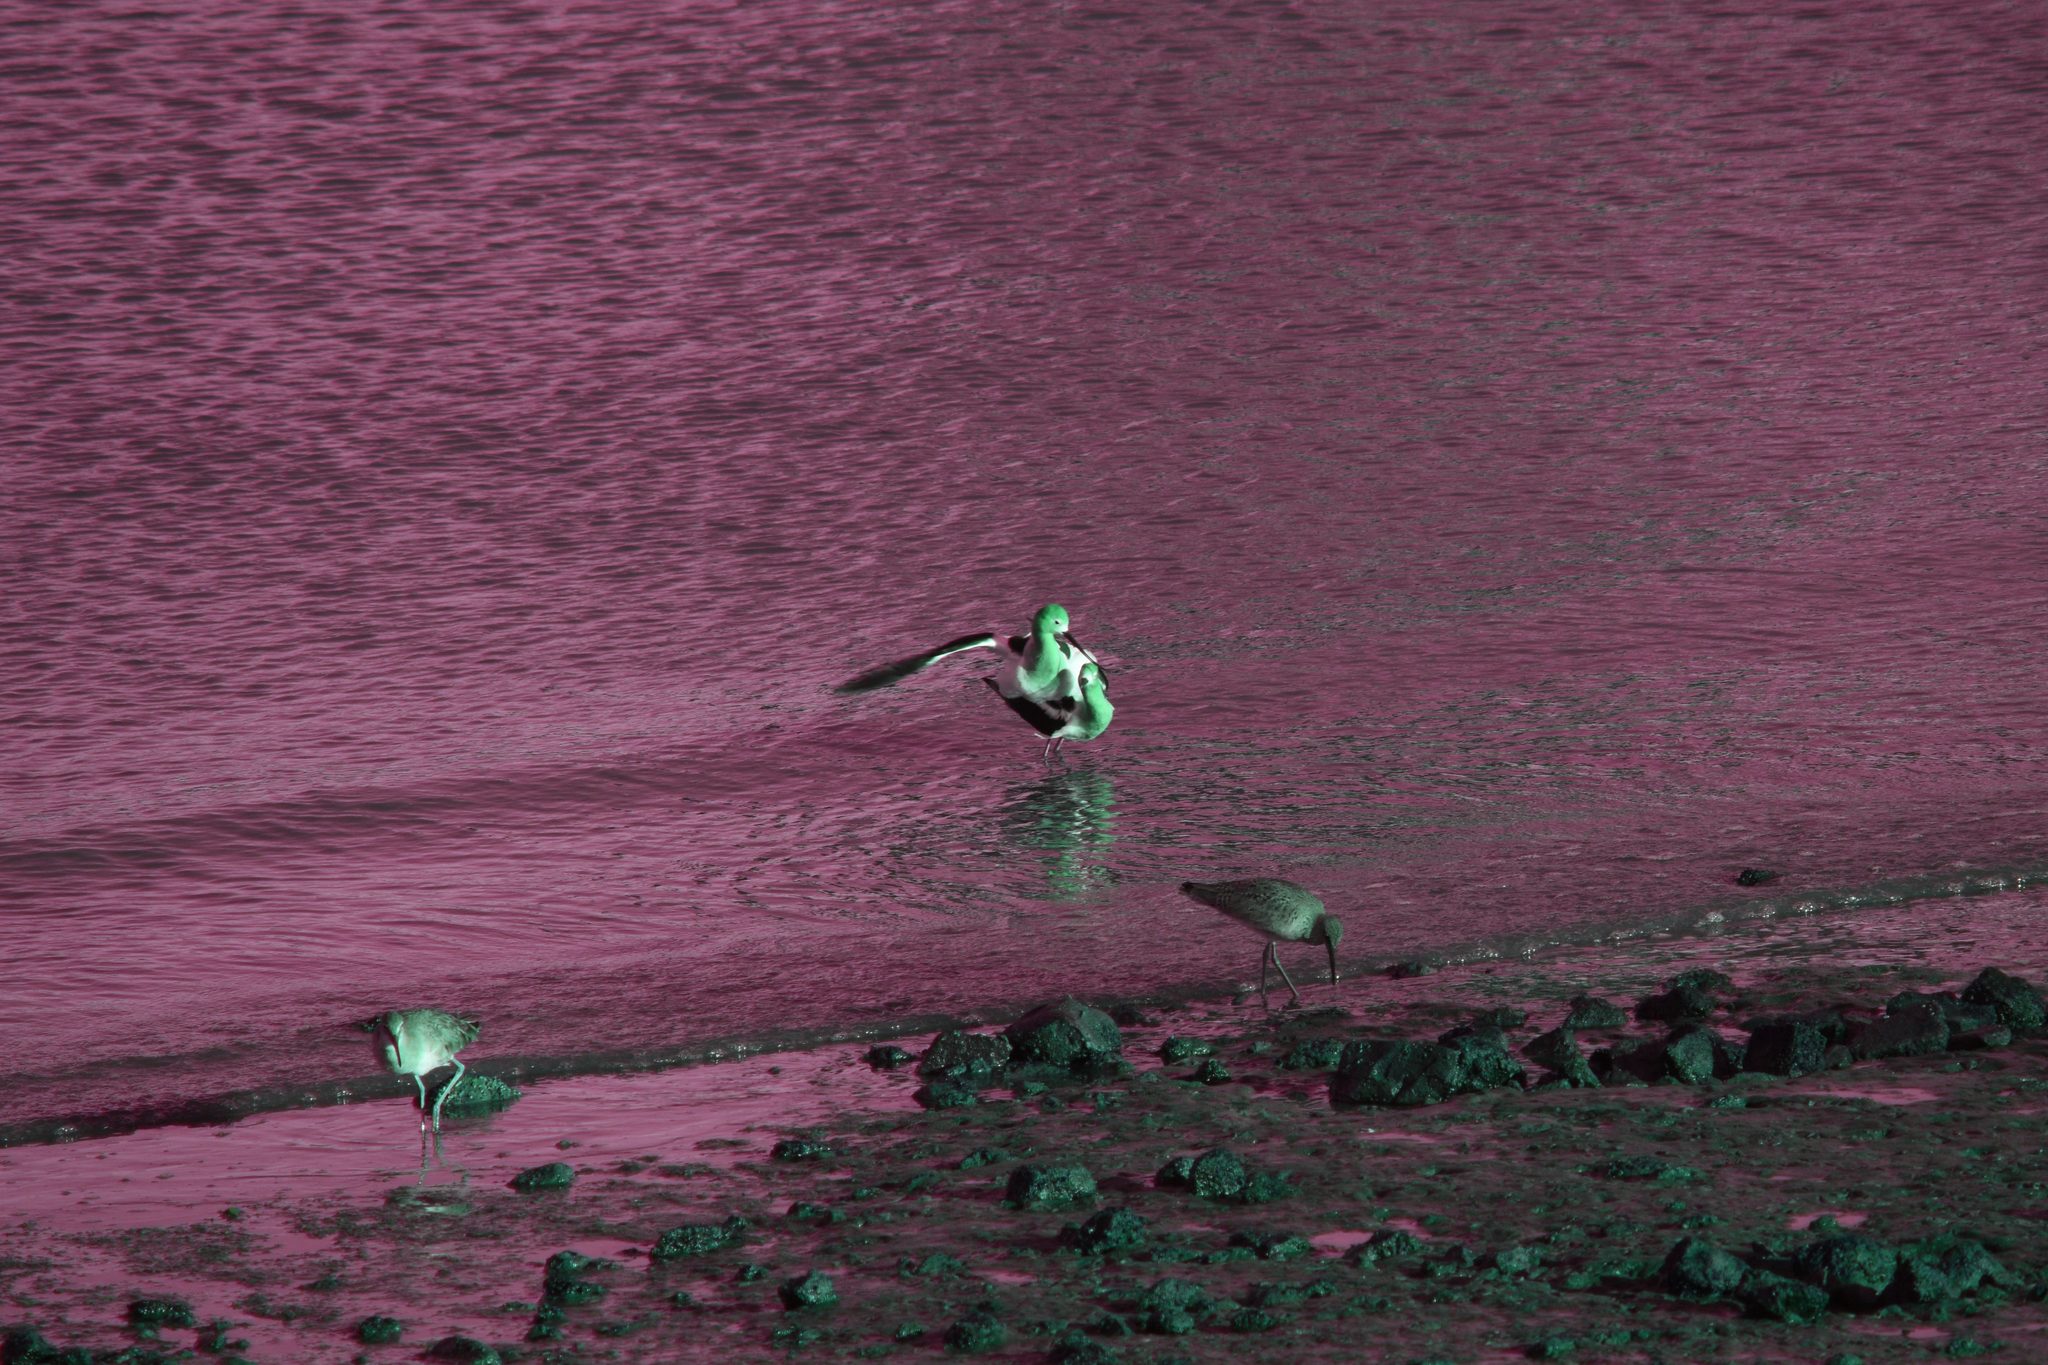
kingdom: Animalia
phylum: Chordata
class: Aves
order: Charadriiformes
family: Recurvirostridae
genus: Recurvirostra
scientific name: Recurvirostra americana
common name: American avocet
